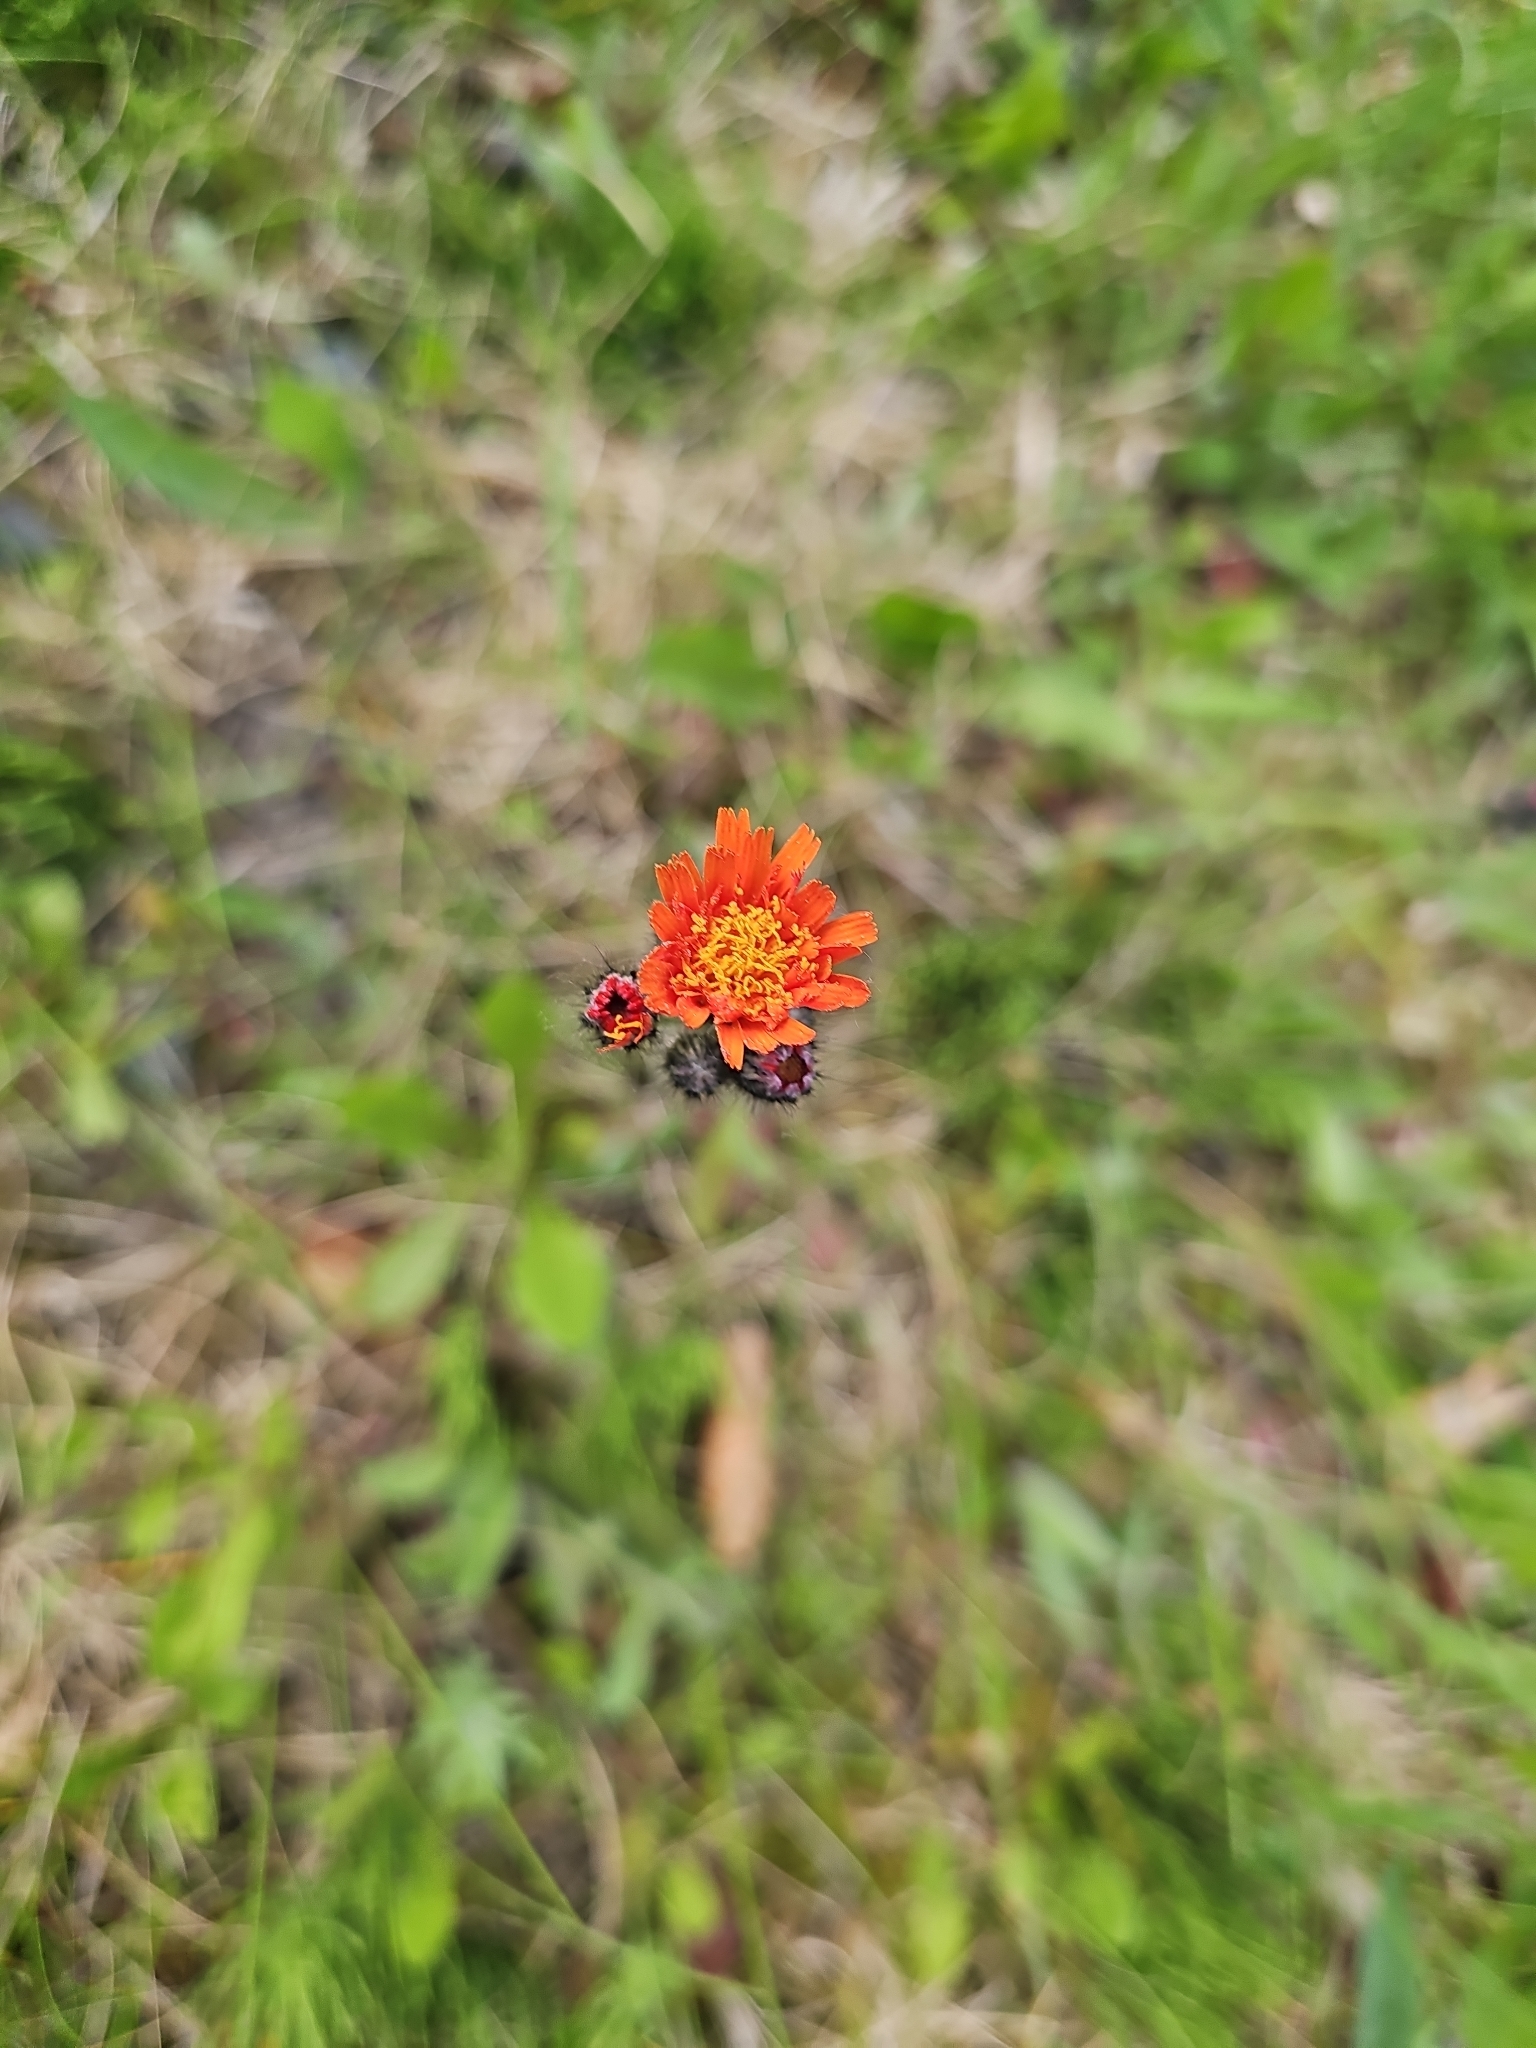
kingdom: Plantae
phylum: Tracheophyta
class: Magnoliopsida
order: Asterales
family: Asteraceae
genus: Pilosella
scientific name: Pilosella aurantiaca
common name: Fox-and-cubs
